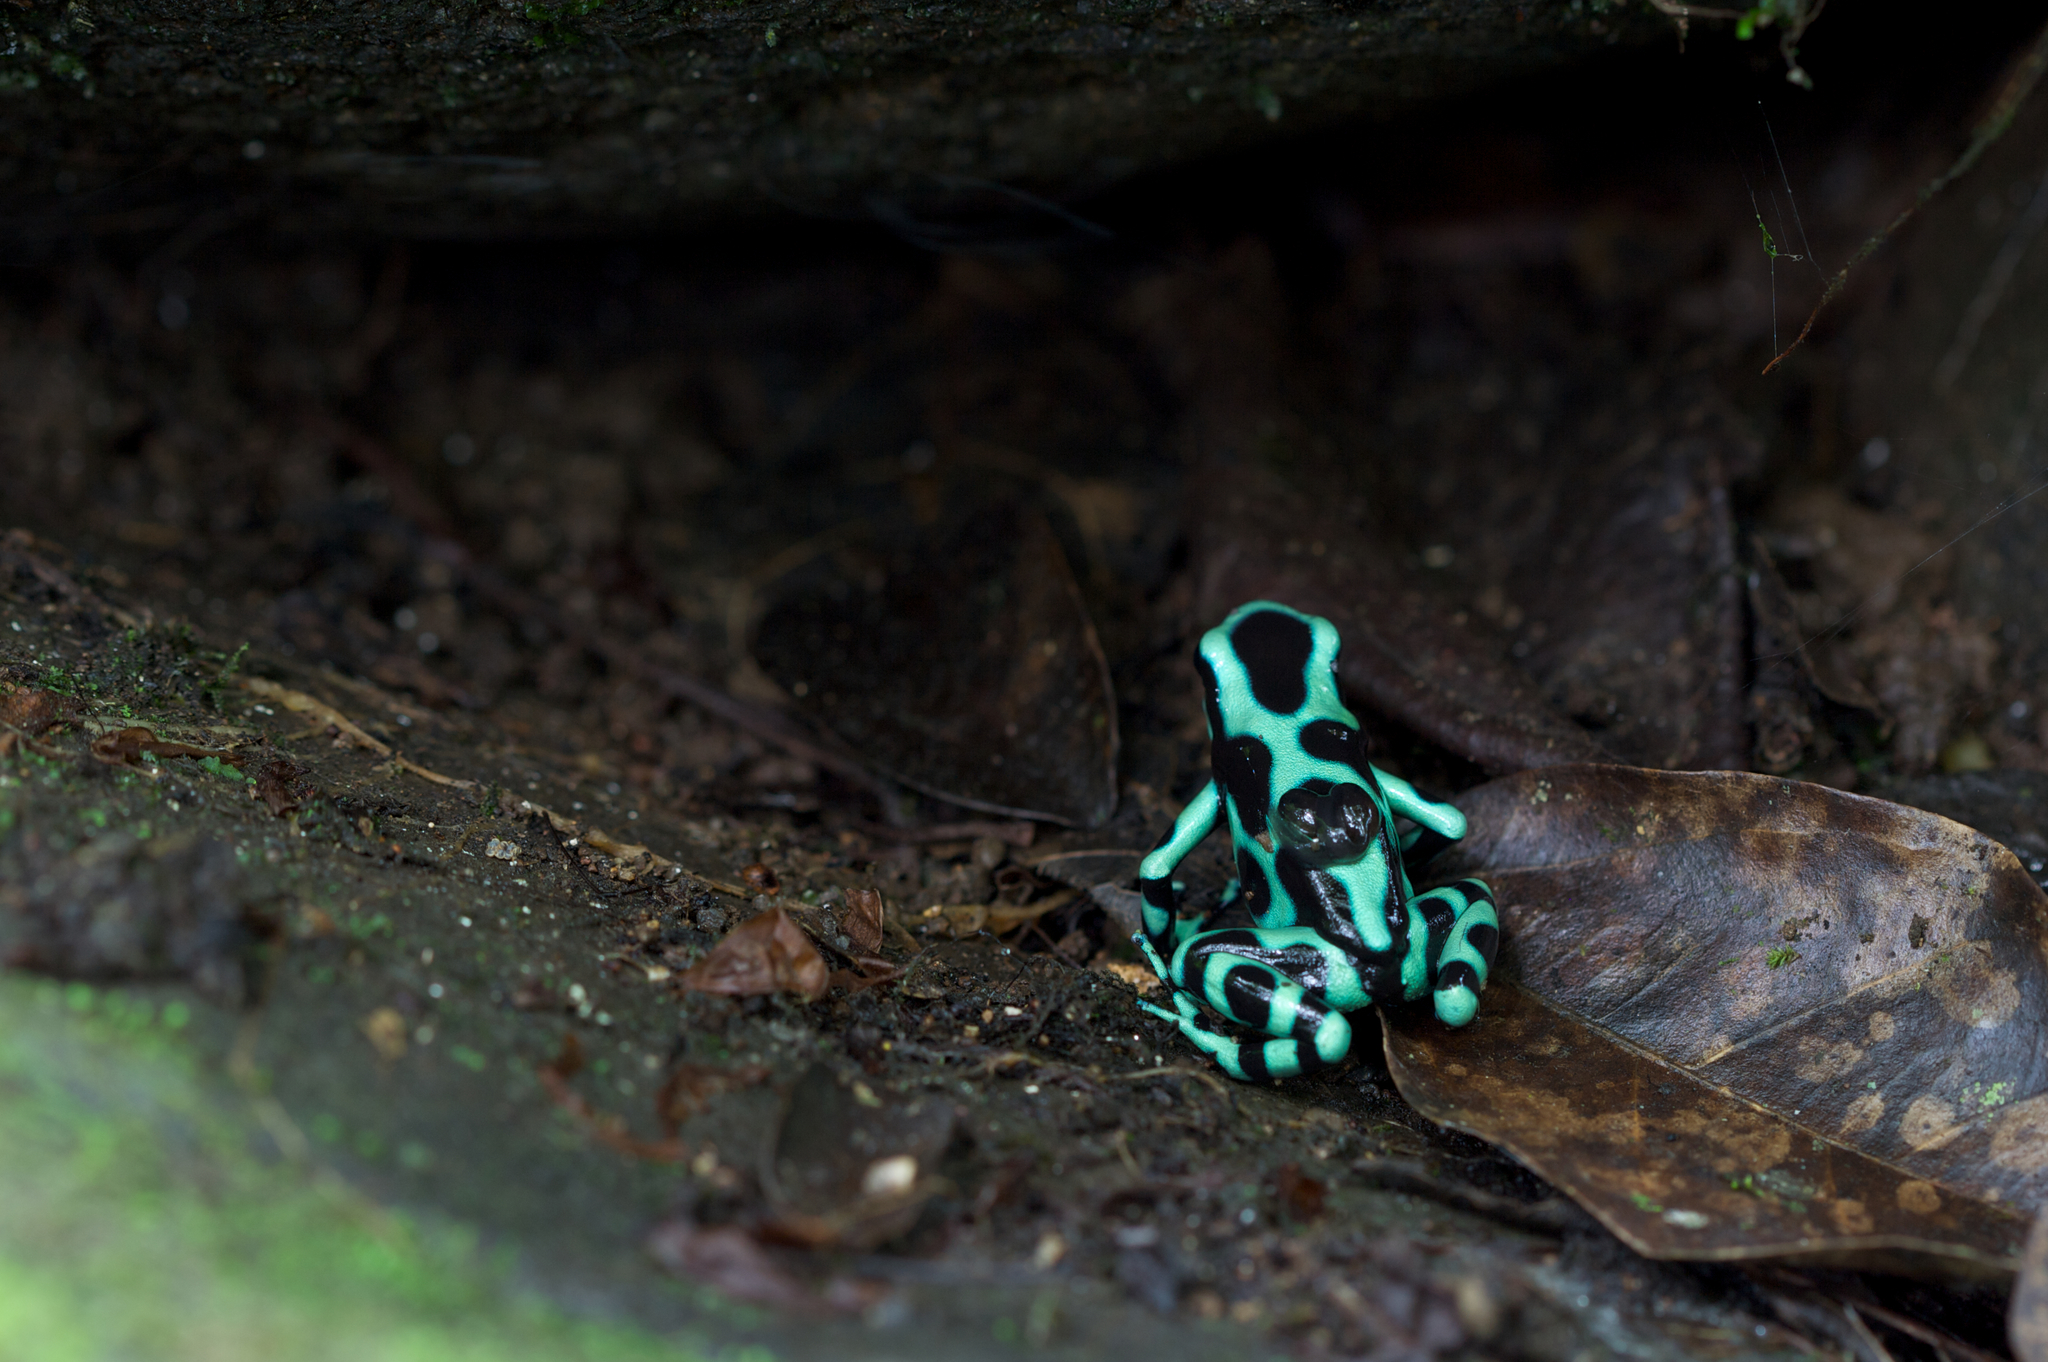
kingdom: Animalia
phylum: Chordata
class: Amphibia
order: Anura
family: Dendrobatidae
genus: Dendrobates
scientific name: Dendrobates auratus
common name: Green and black poison dart frog
